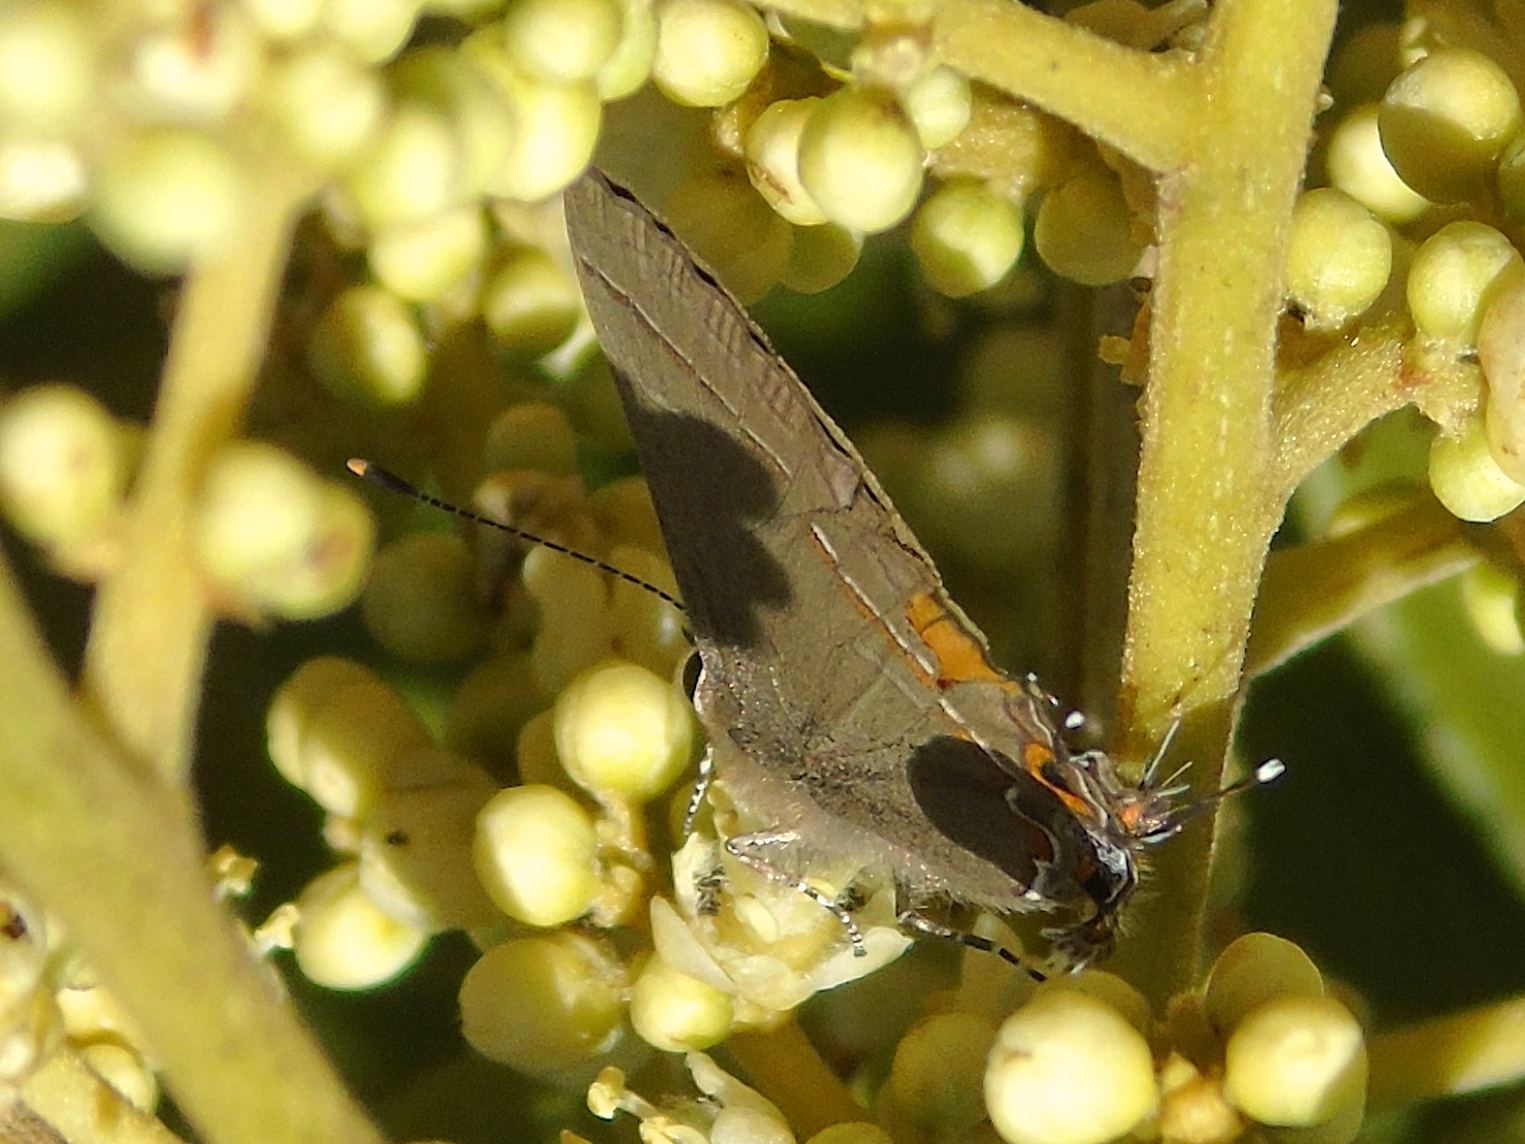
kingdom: Animalia
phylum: Arthropoda
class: Insecta
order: Lepidoptera
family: Lycaenidae
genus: Electrostrymon
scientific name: Electrostrymon endymion
